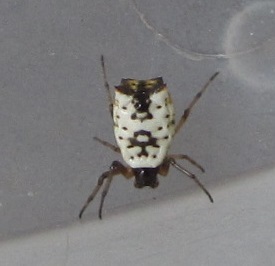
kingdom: Animalia
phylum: Arthropoda
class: Arachnida
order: Araneae
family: Araneidae
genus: Micrathena
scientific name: Micrathena mitrata
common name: Orb weavers
